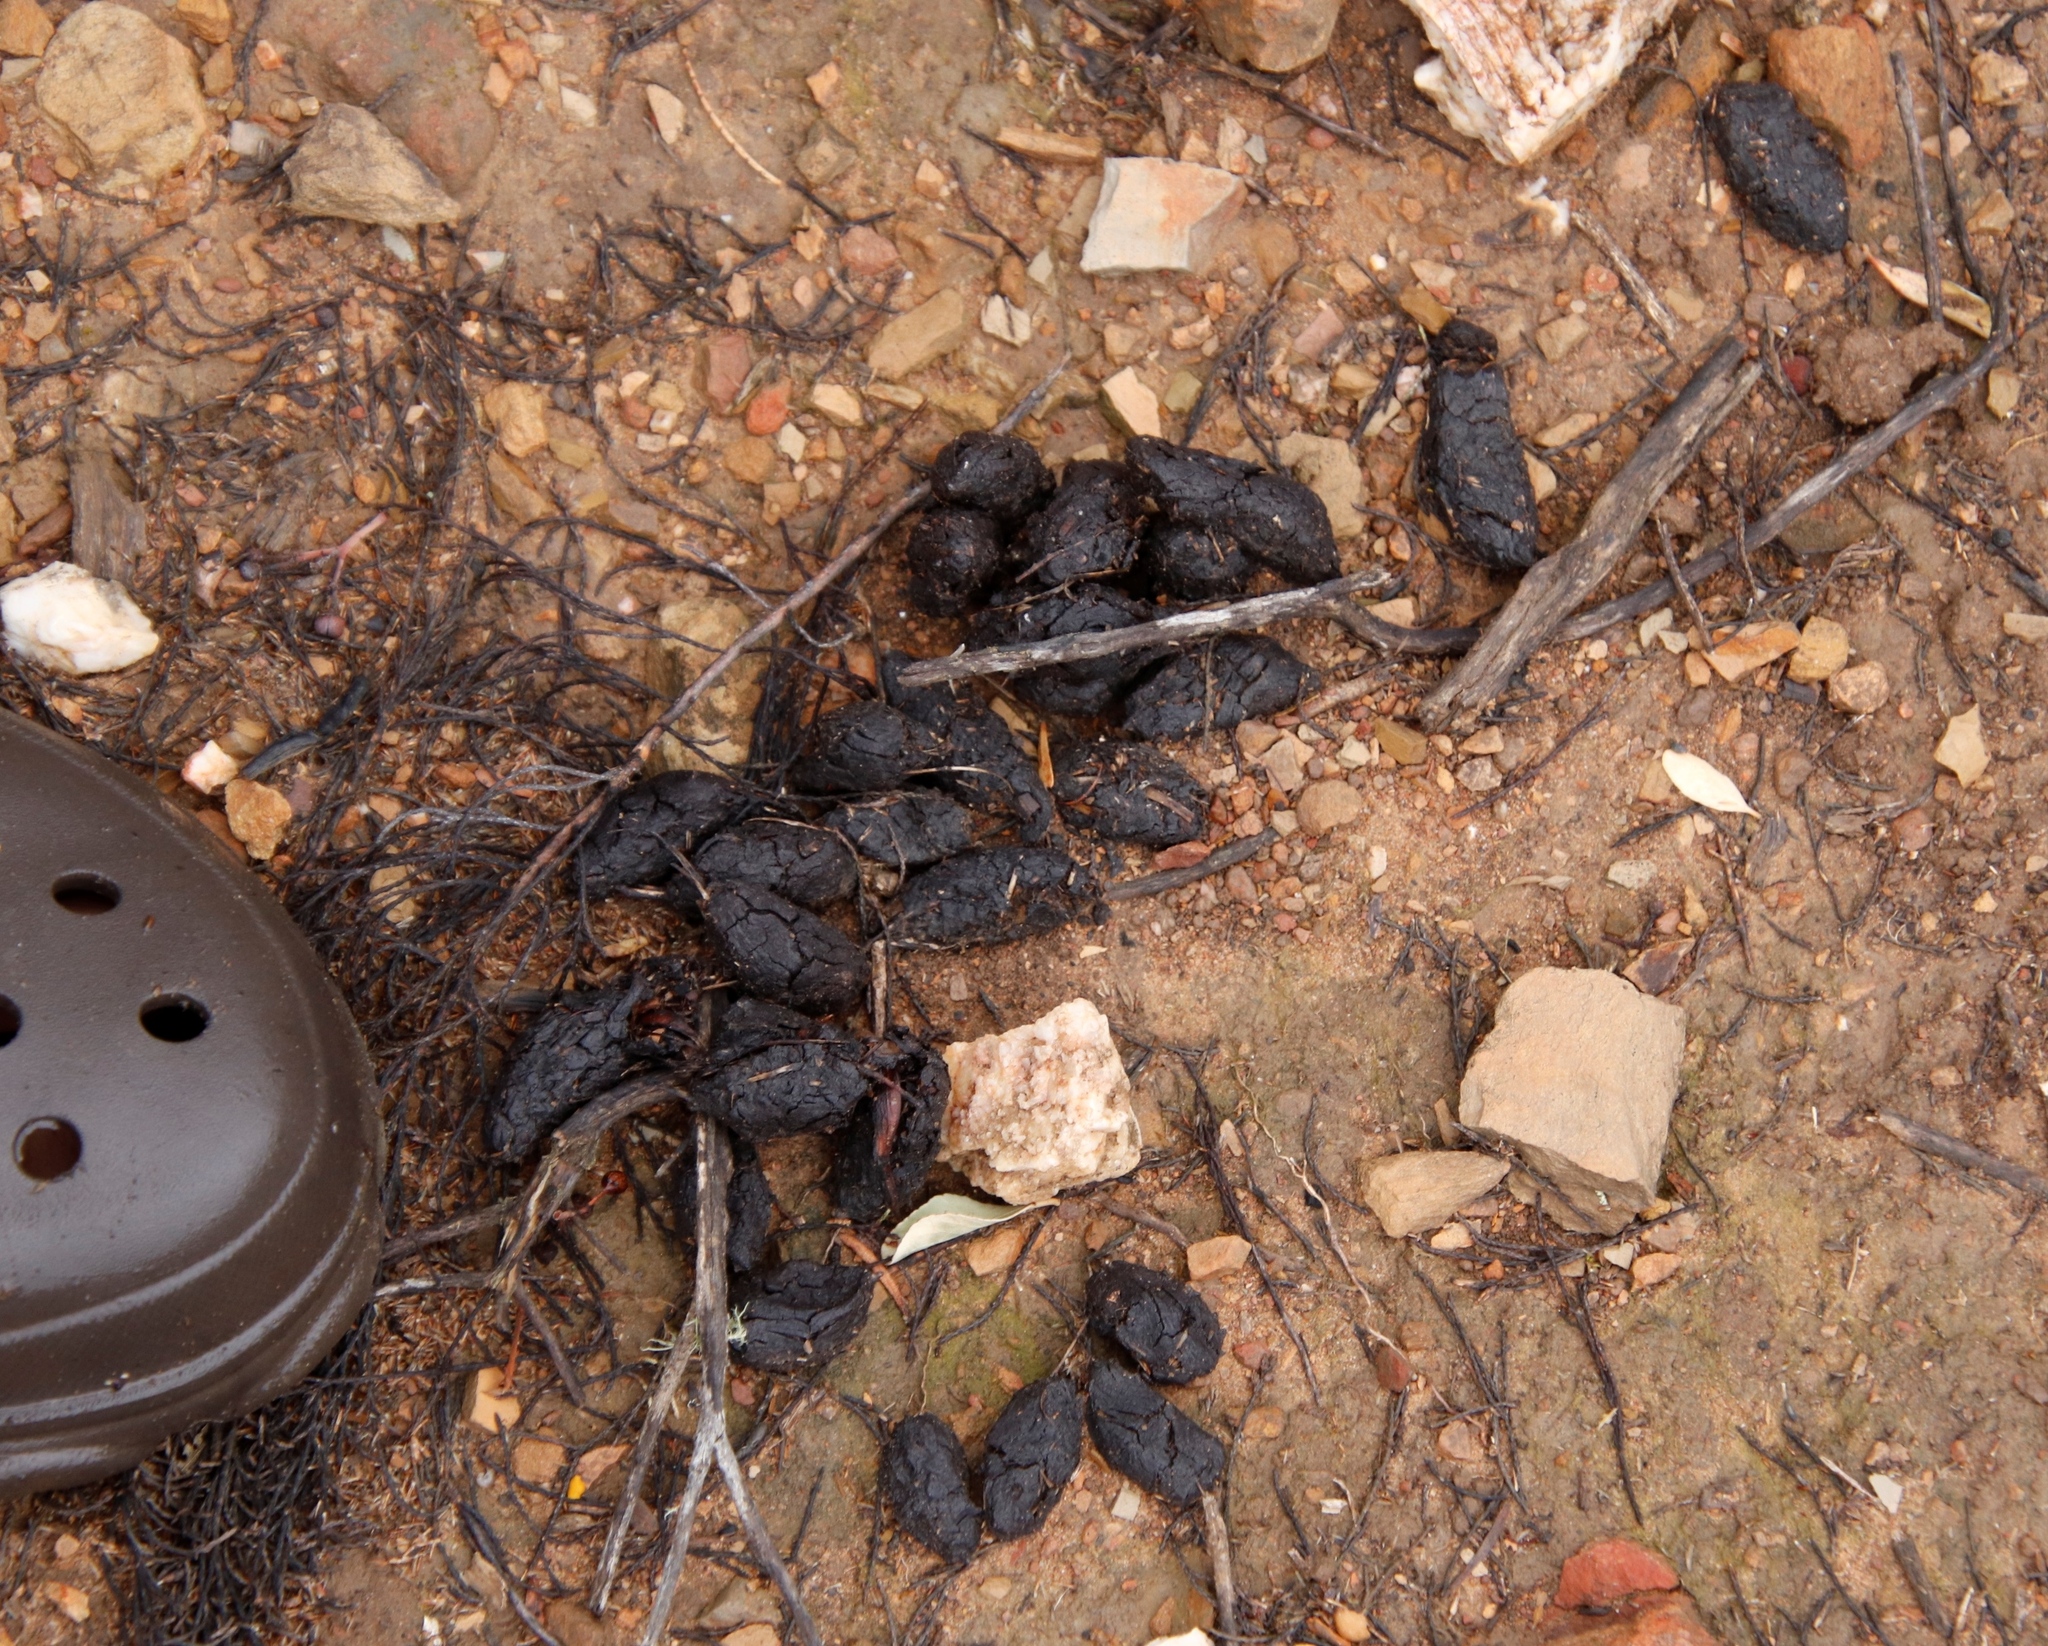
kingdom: Animalia
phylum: Chordata
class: Mammalia
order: Rodentia
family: Hystricidae
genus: Hystrix
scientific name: Hystrix africaeaustralis
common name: Cape porcupine
